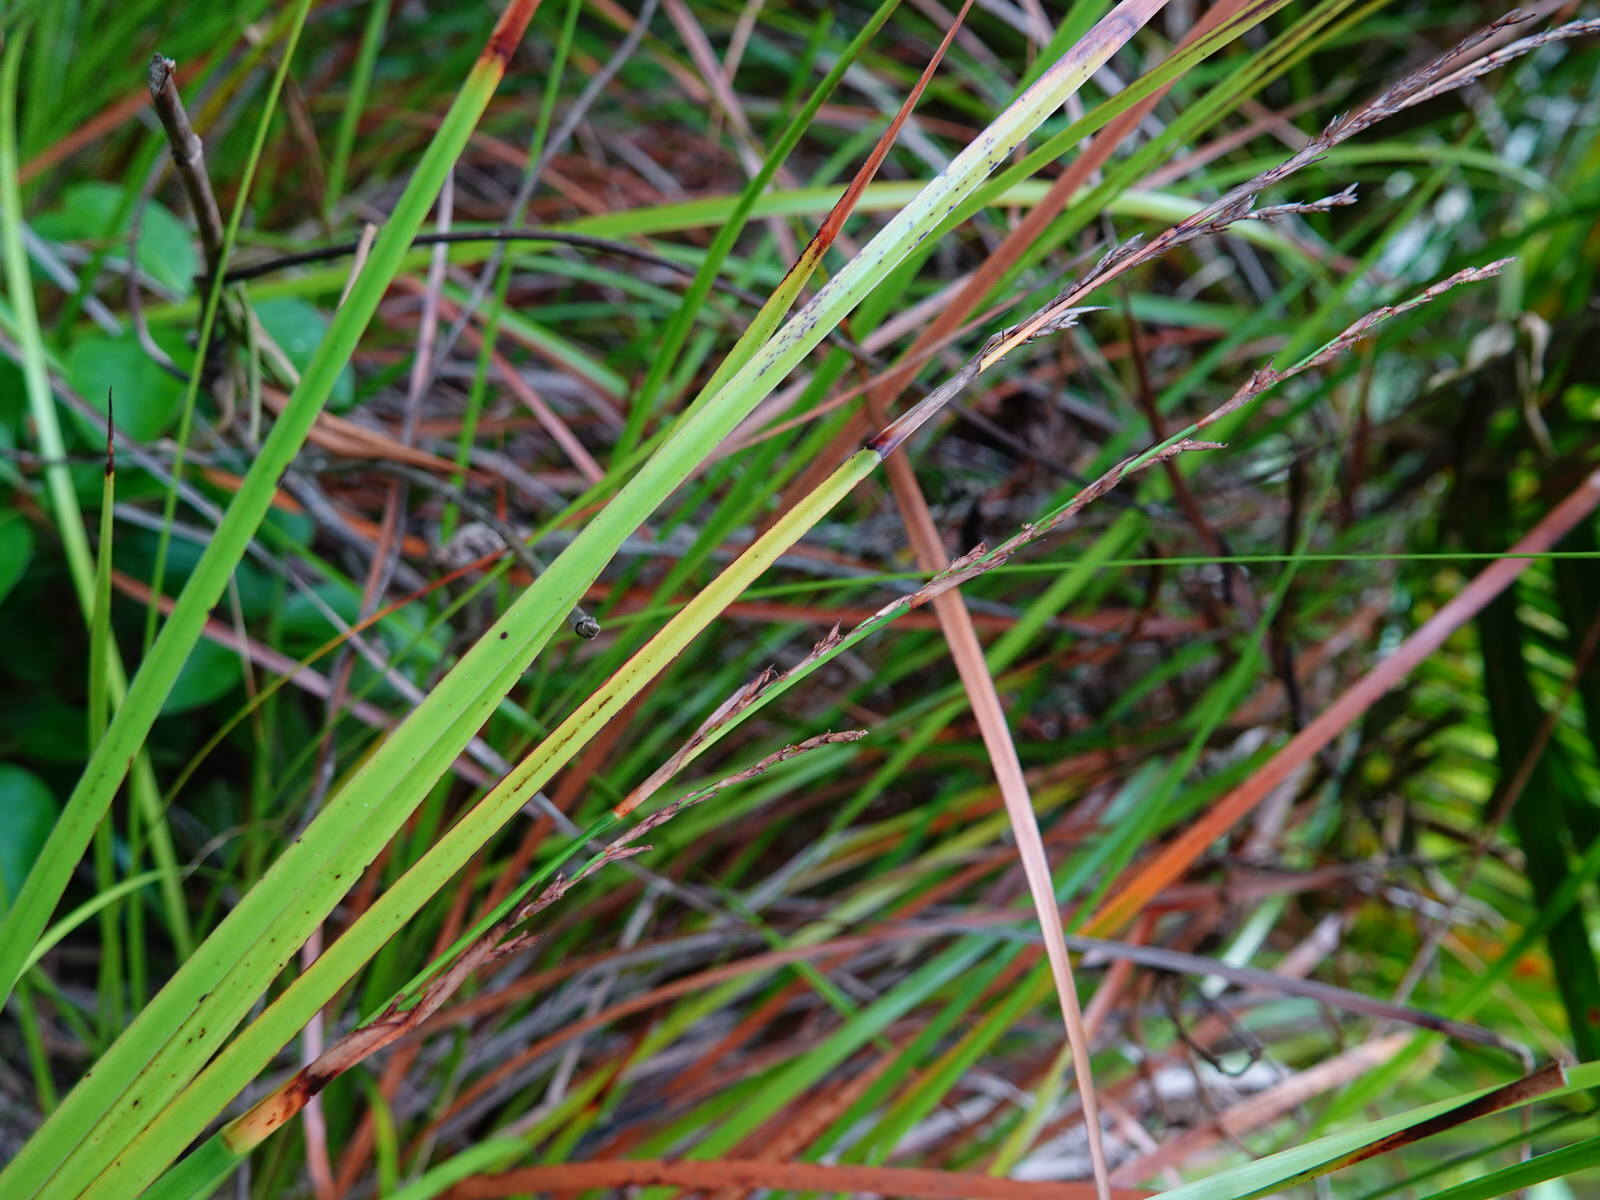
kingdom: Plantae
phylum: Tracheophyta
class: Liliopsida
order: Poales
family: Cyperaceae
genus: Lepidosperma
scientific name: Lepidosperma laterale
